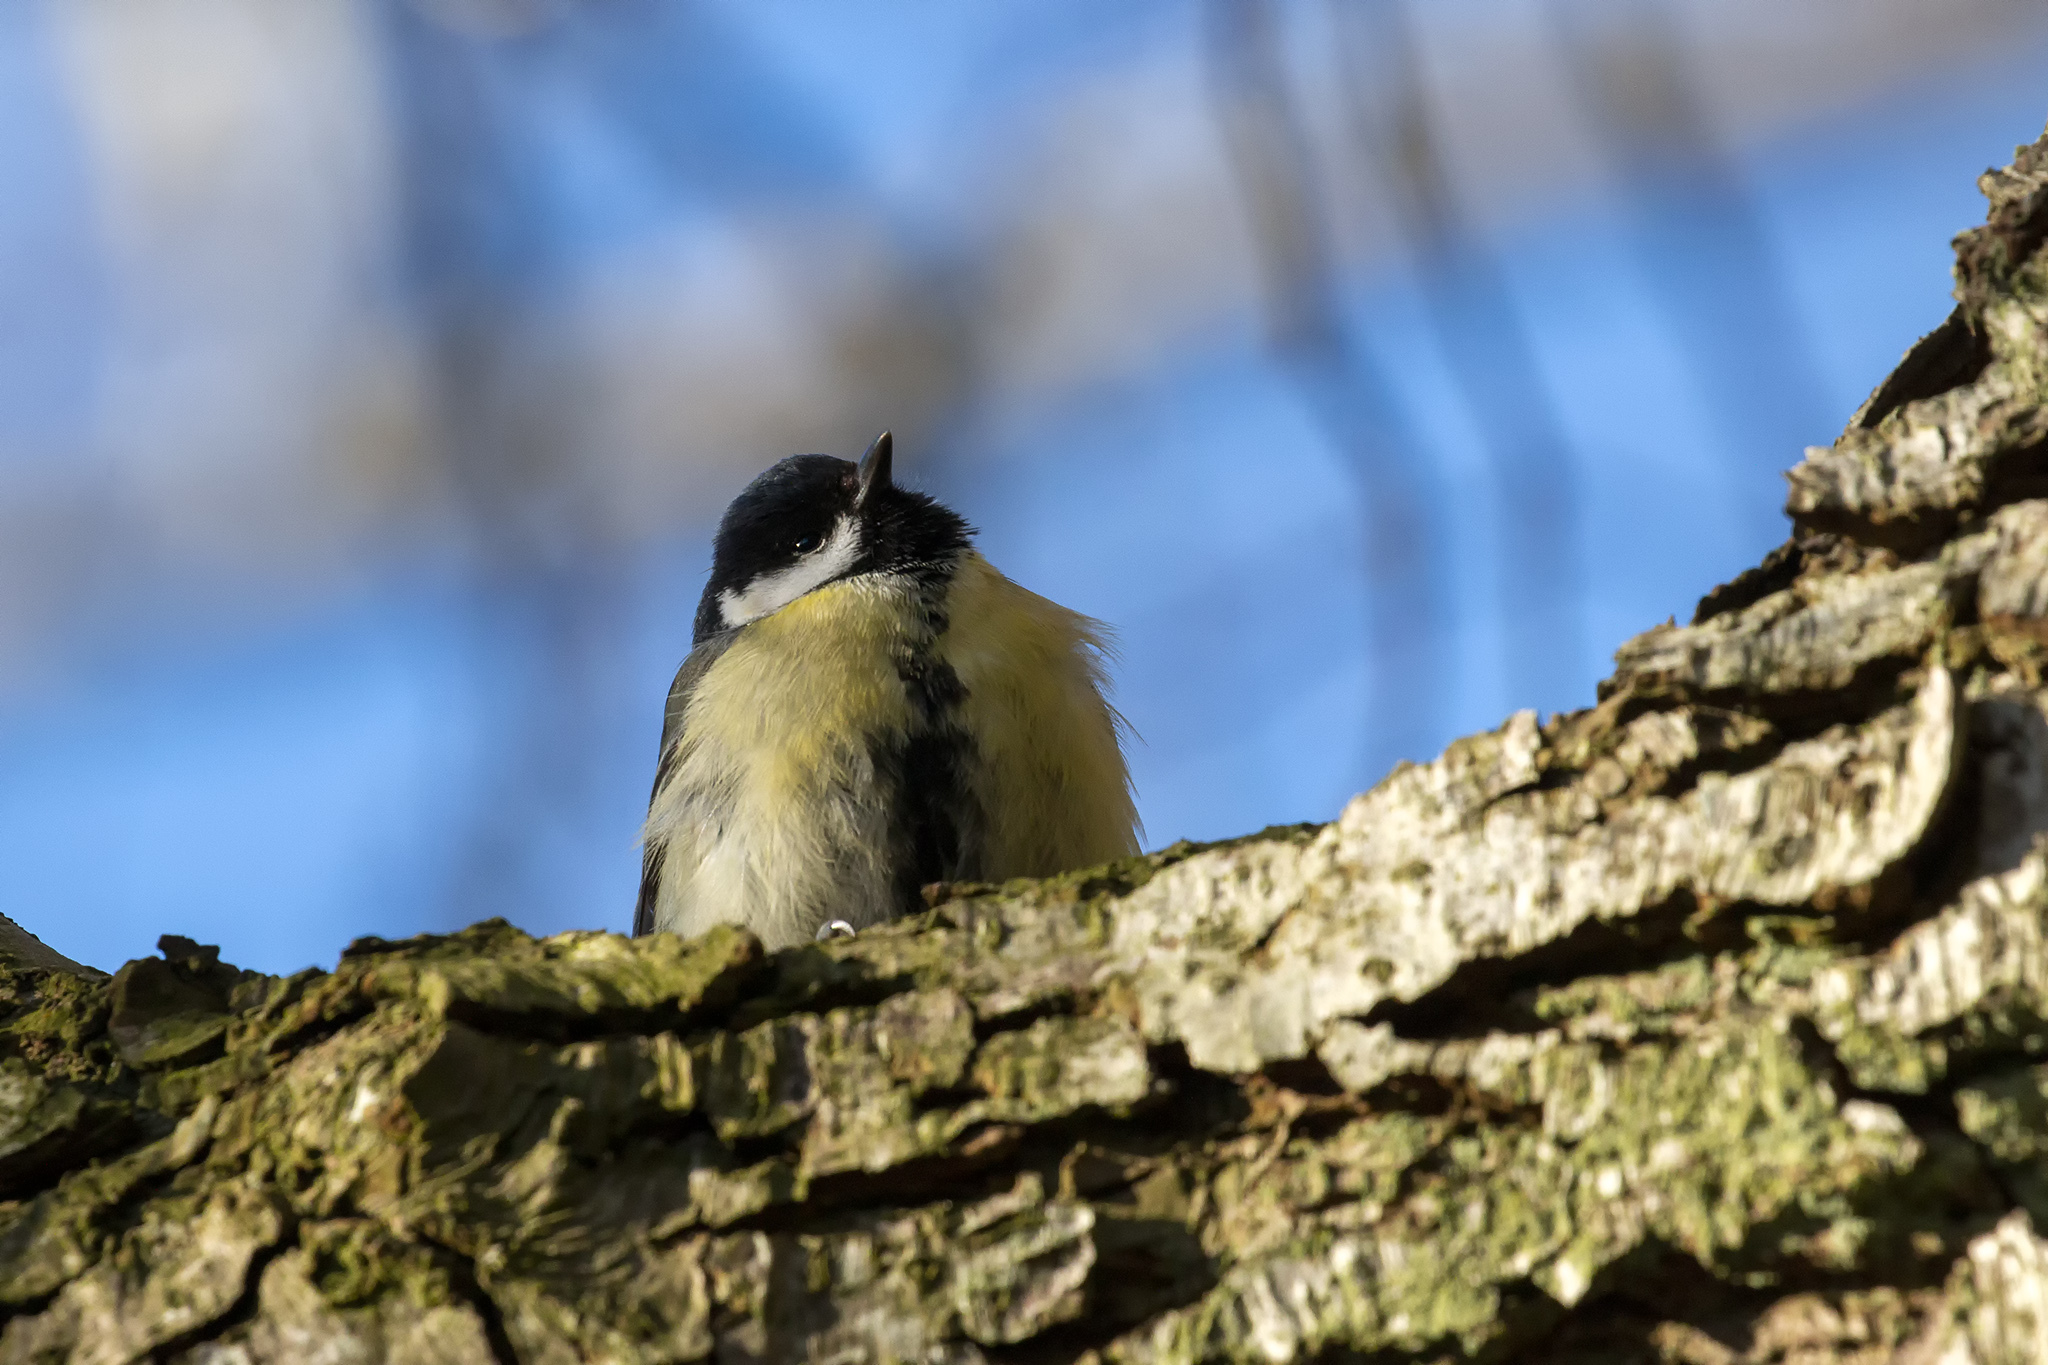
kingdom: Animalia
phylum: Chordata
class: Aves
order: Passeriformes
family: Paridae
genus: Parus
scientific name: Parus major
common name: Great tit
